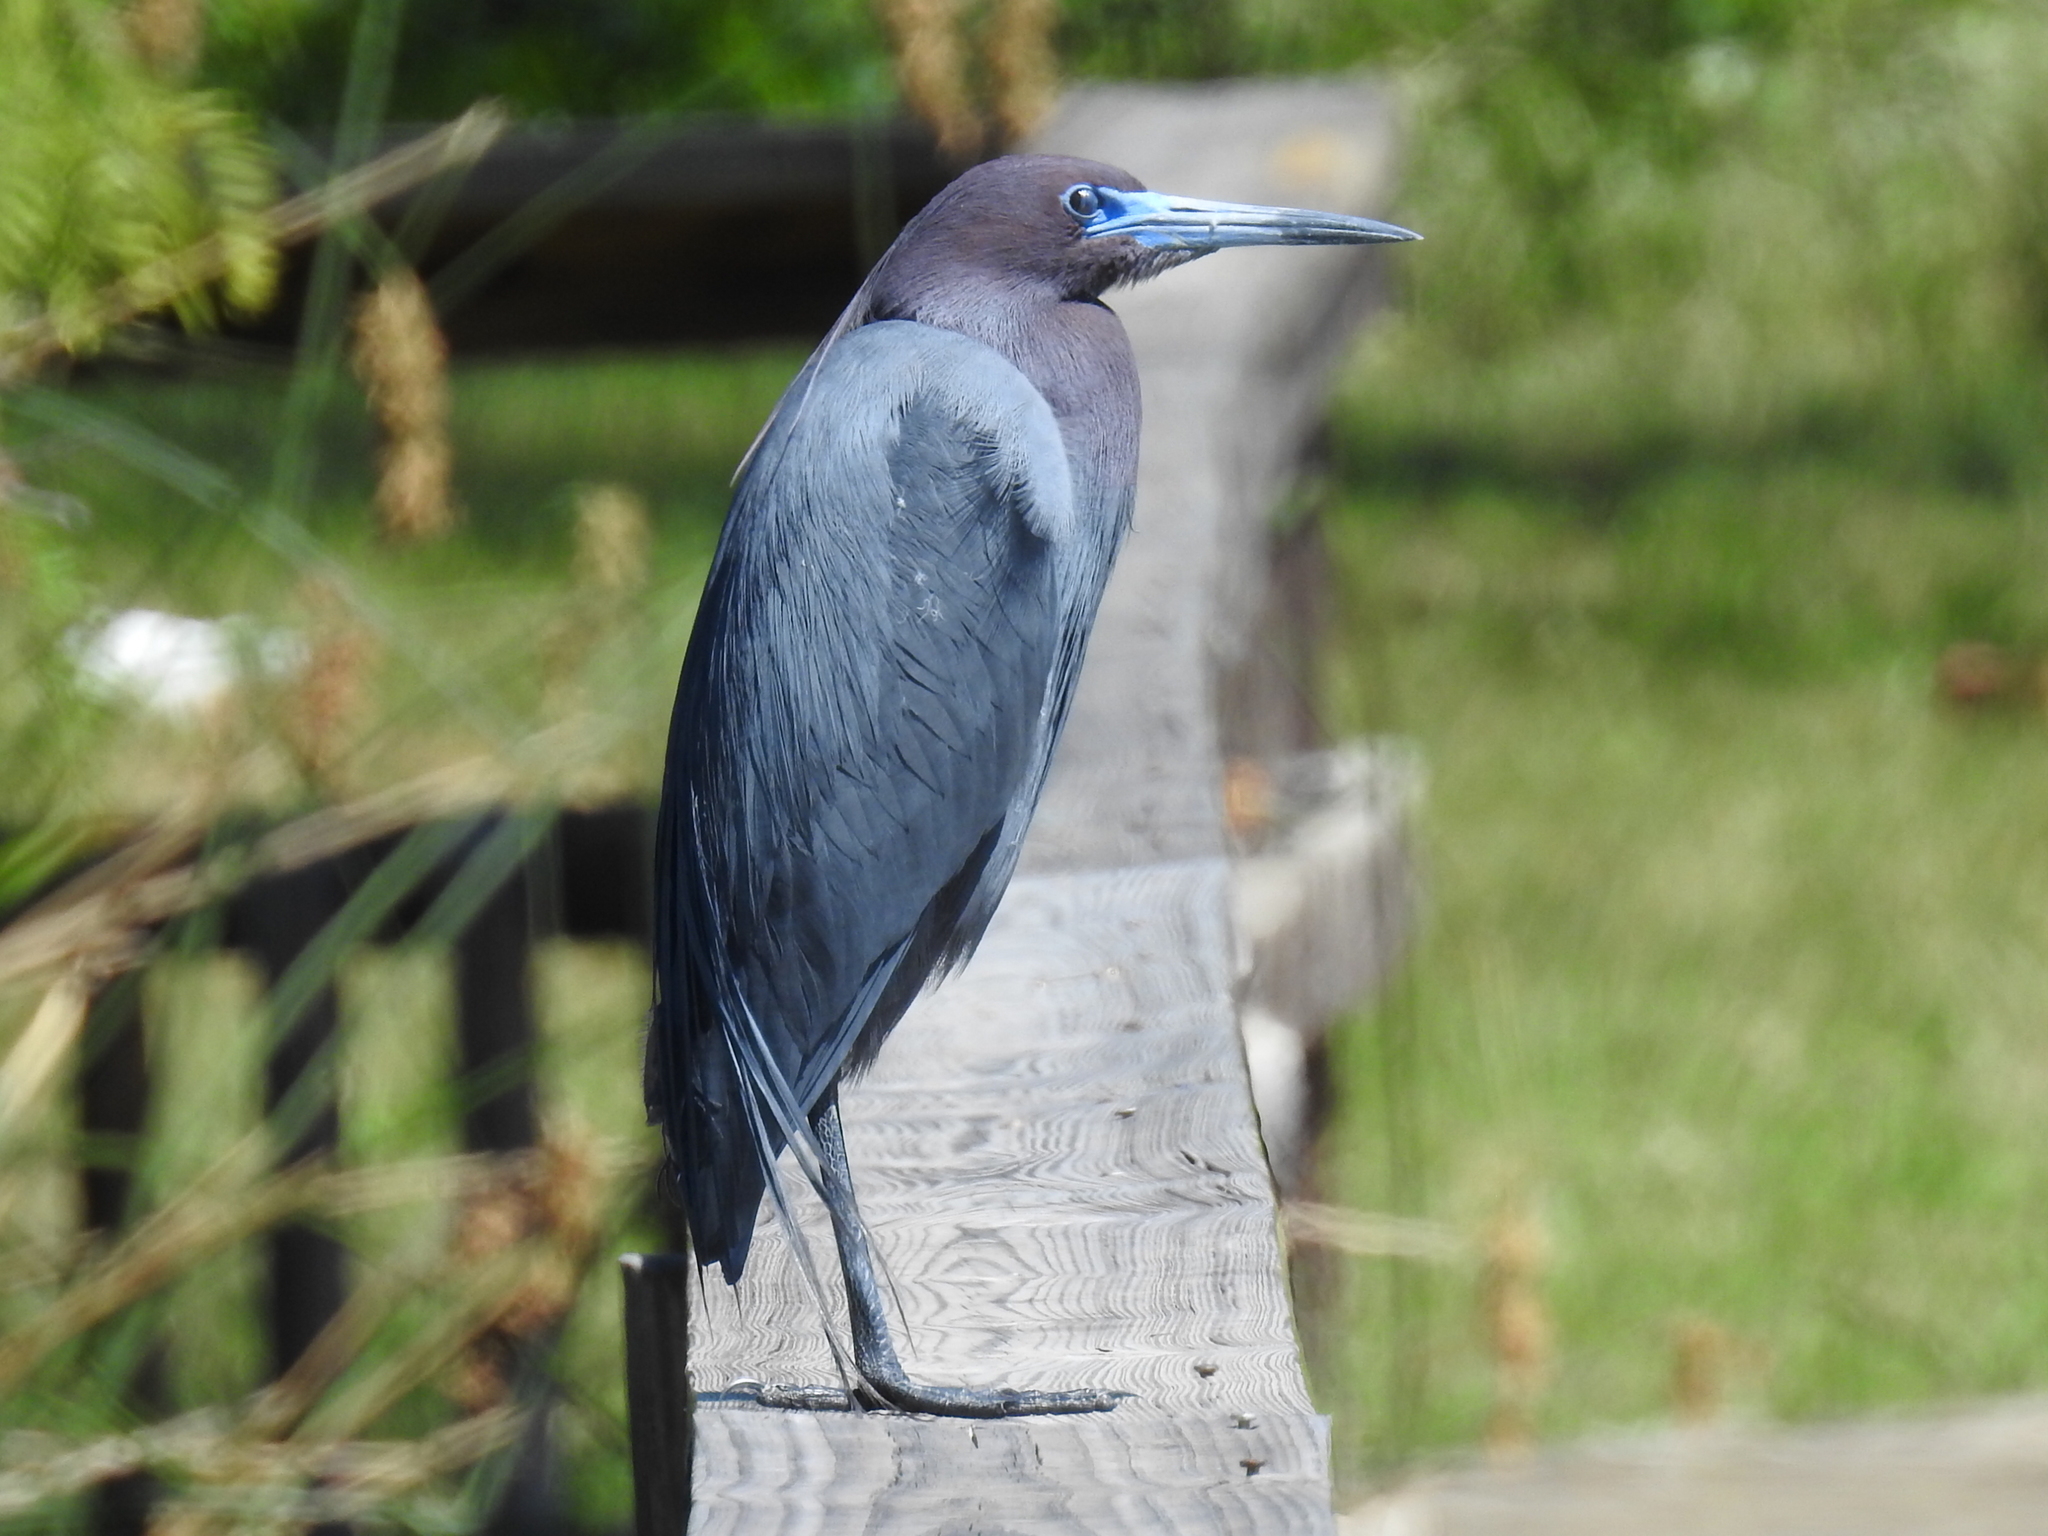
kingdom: Animalia
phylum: Chordata
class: Aves
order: Pelecaniformes
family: Ardeidae
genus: Egretta
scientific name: Egretta caerulea
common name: Little blue heron
